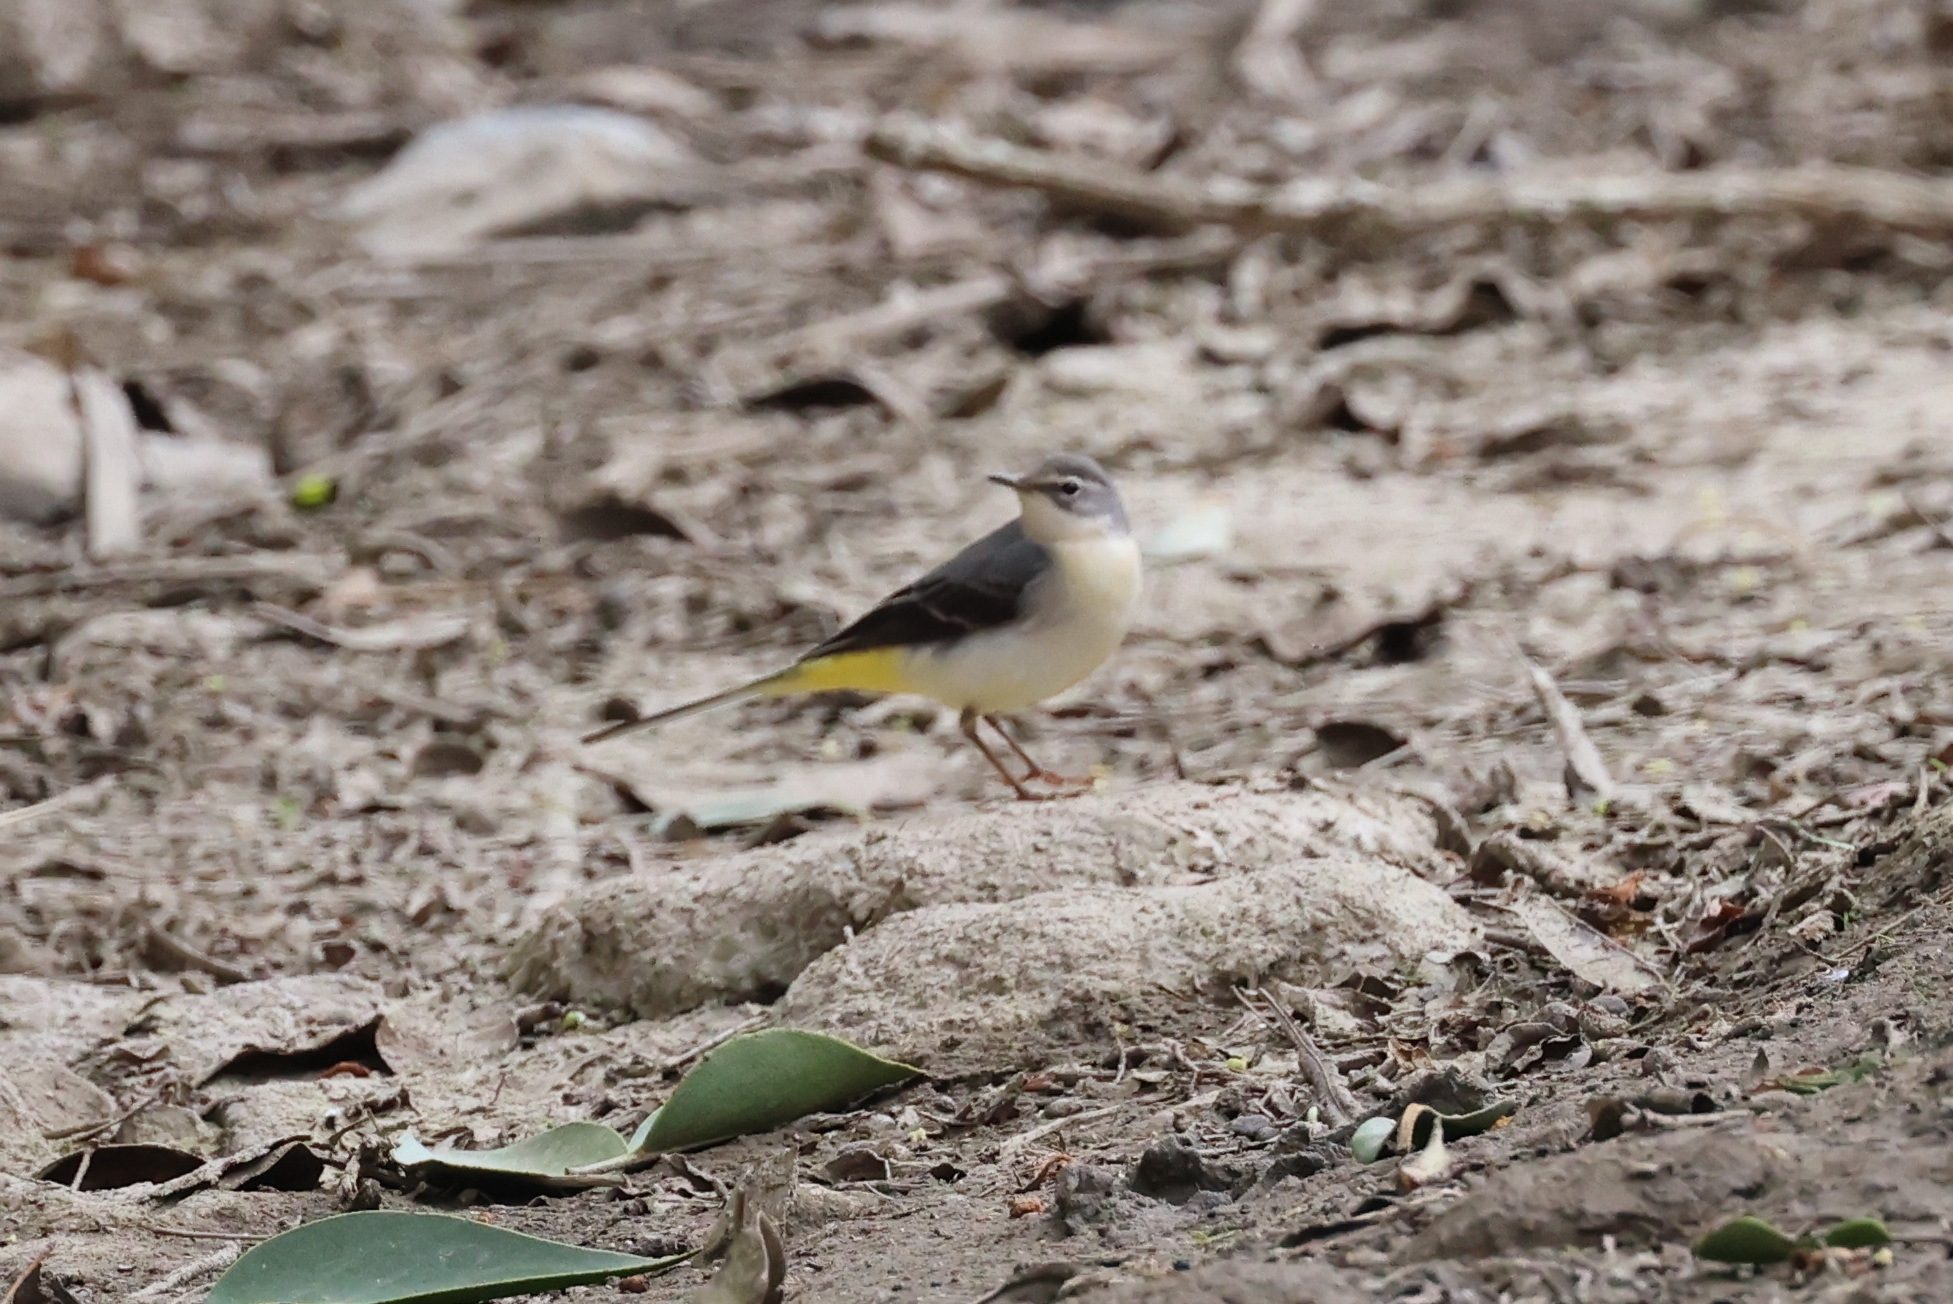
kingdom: Animalia
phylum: Chordata
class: Aves
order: Passeriformes
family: Motacillidae
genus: Motacilla
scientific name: Motacilla cinerea
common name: Grey wagtail
